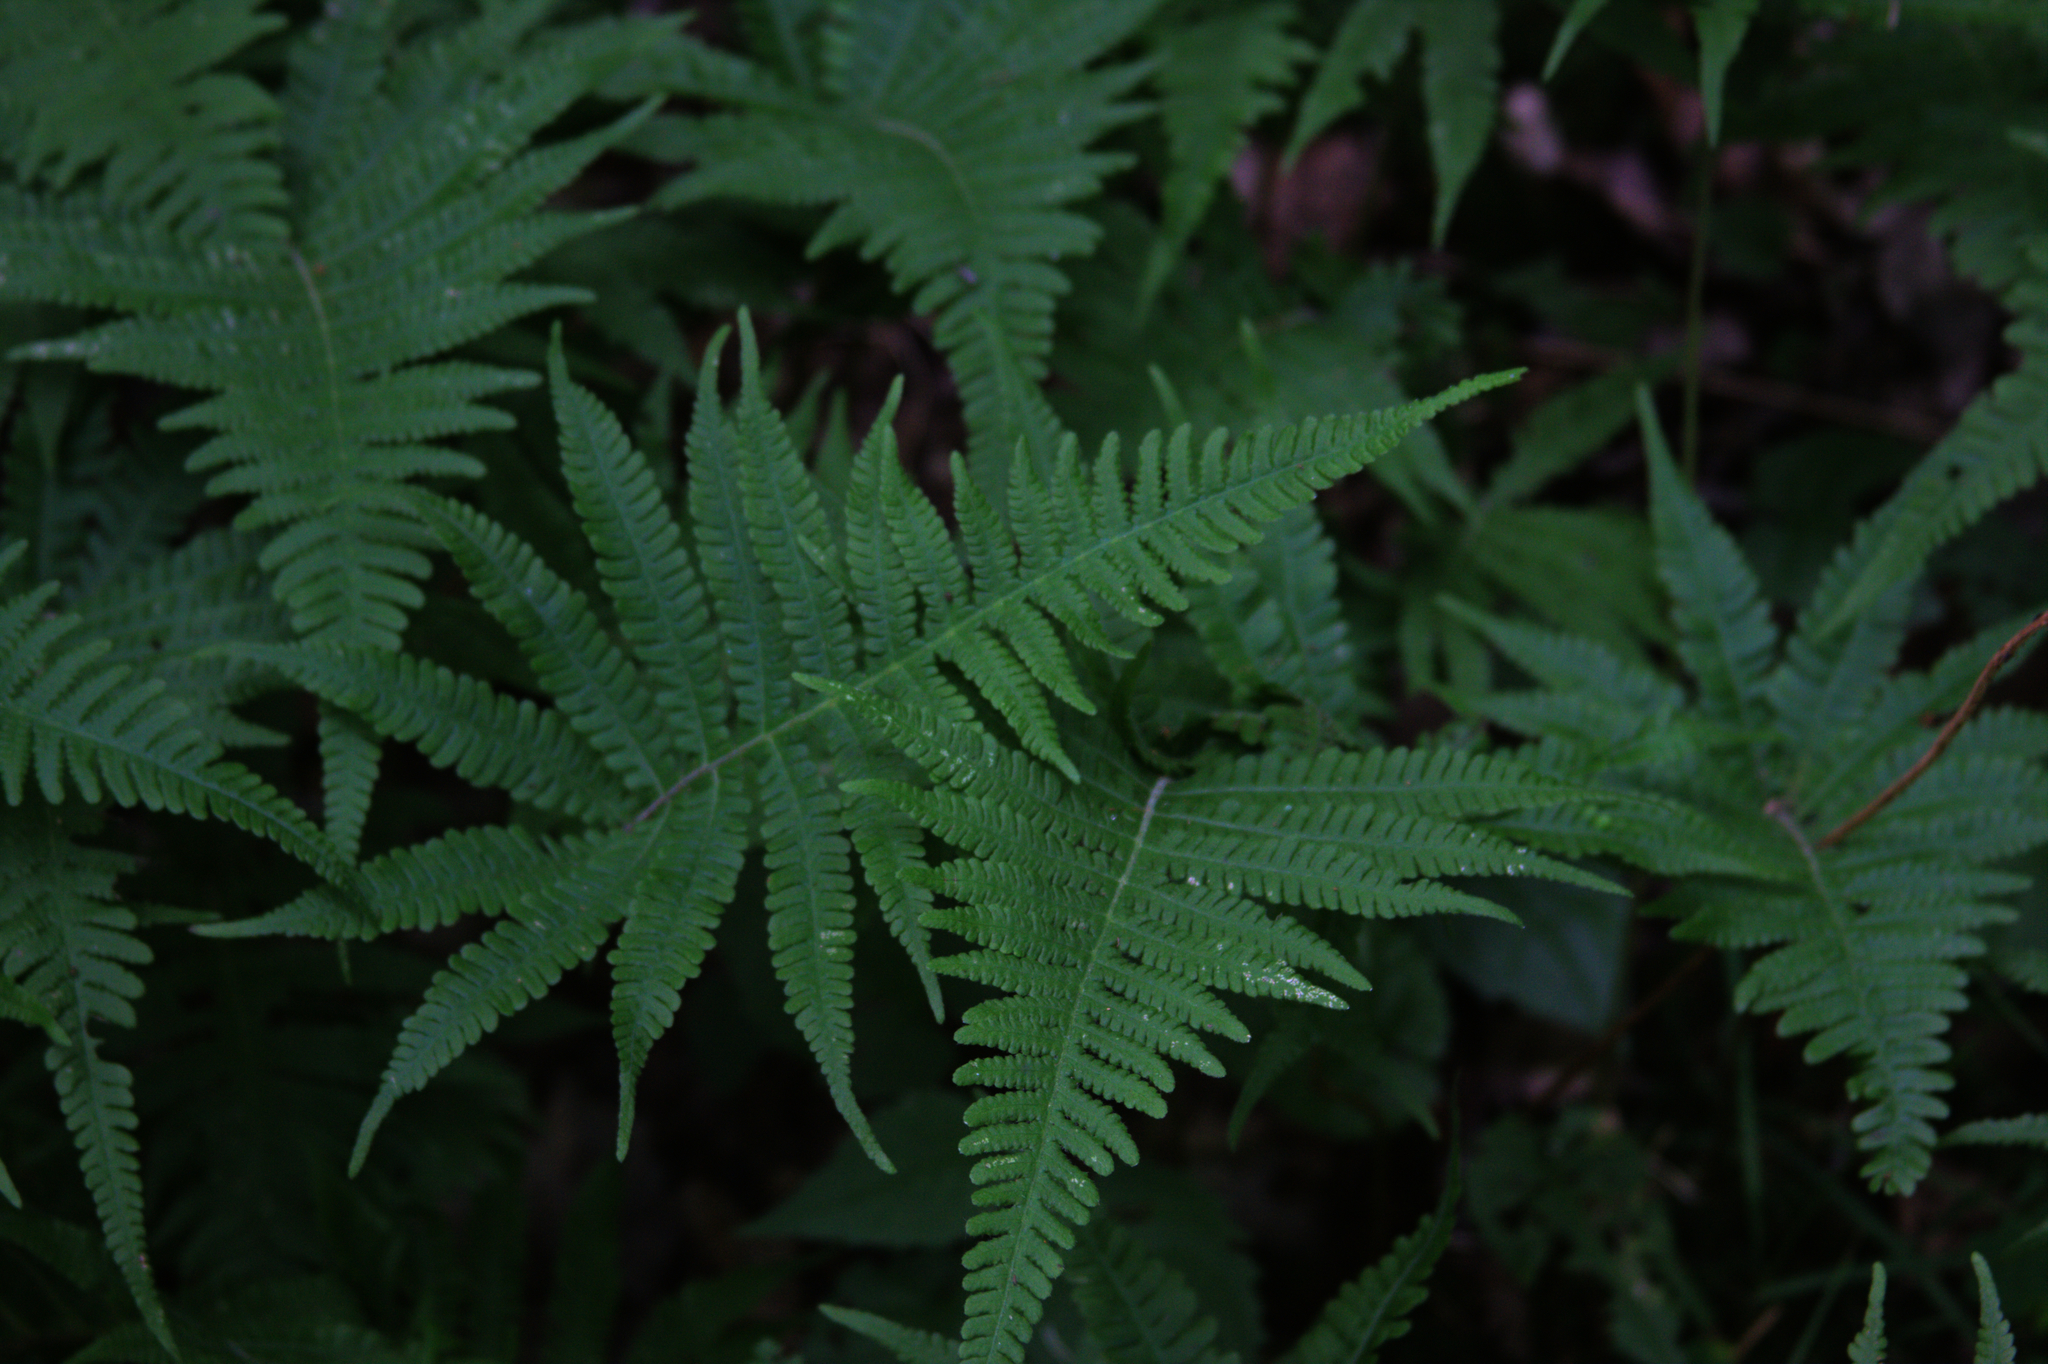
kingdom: Plantae
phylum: Tracheophyta
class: Polypodiopsida
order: Polypodiales
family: Thelypteridaceae
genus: Phegopteris
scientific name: Phegopteris connectilis
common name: Beech fern
